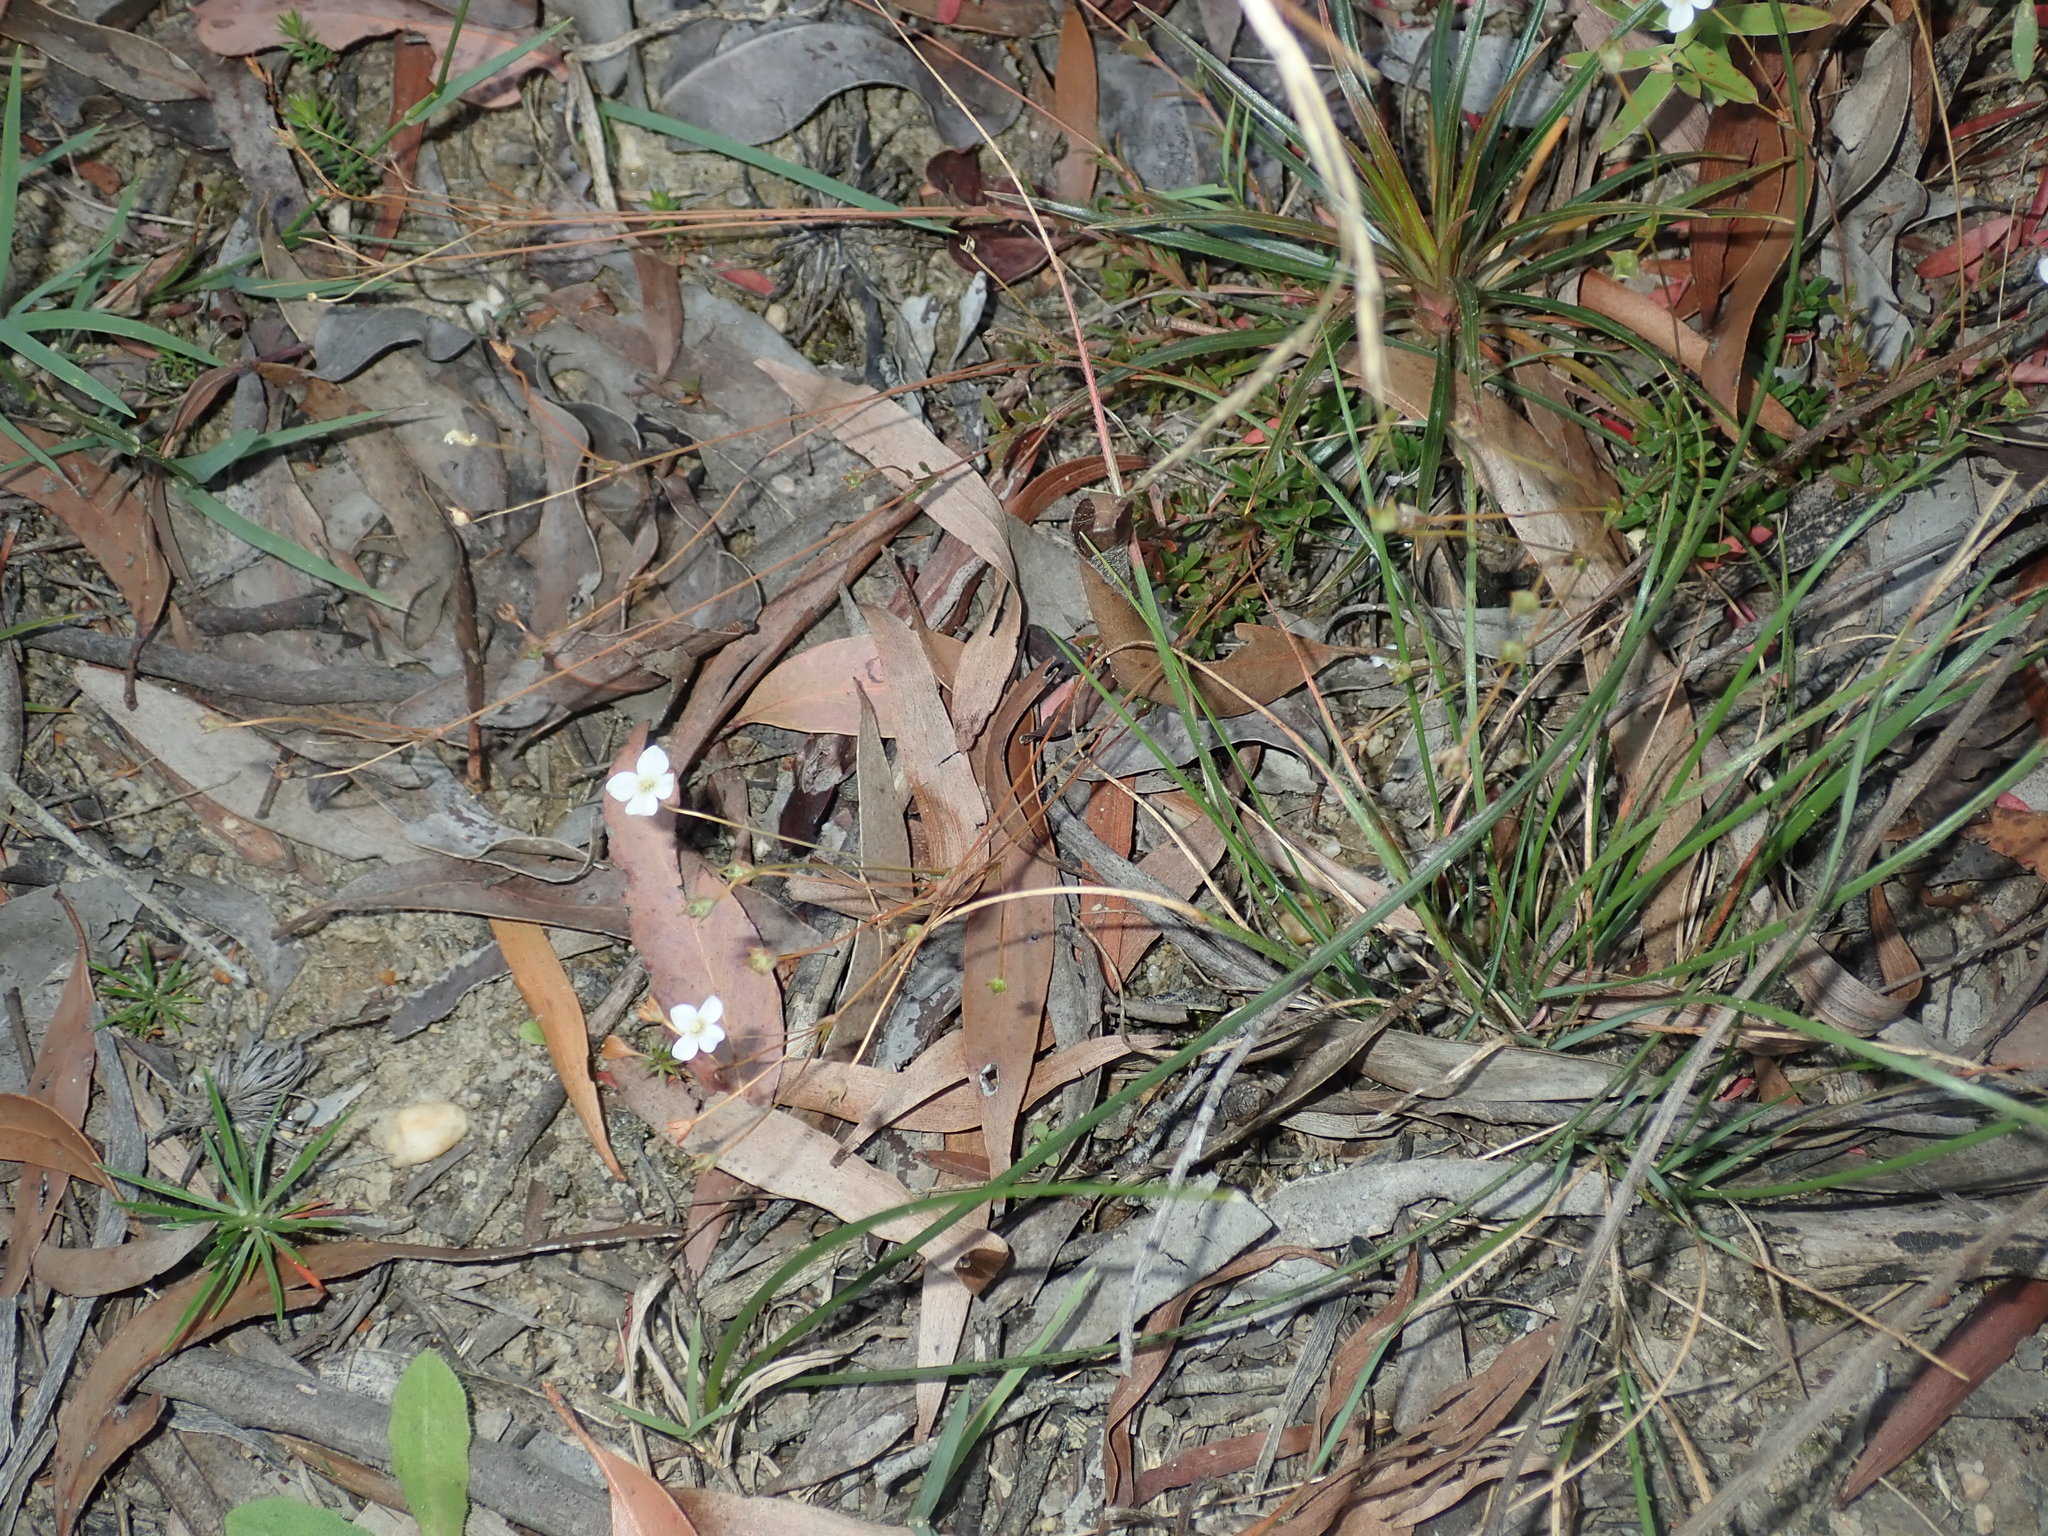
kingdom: Plantae
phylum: Tracheophyta
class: Magnoliopsida
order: Gentianales
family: Loganiaceae
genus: Mitrasacme
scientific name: Mitrasacme polymorpha
